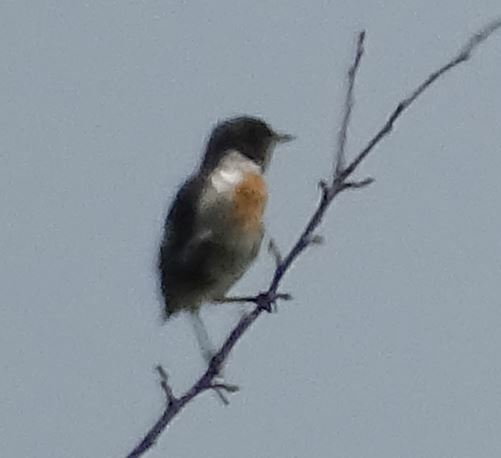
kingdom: Animalia
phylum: Chordata
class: Aves
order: Passeriformes
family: Muscicapidae
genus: Saxicola
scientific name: Saxicola rubicola
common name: European stonechat
